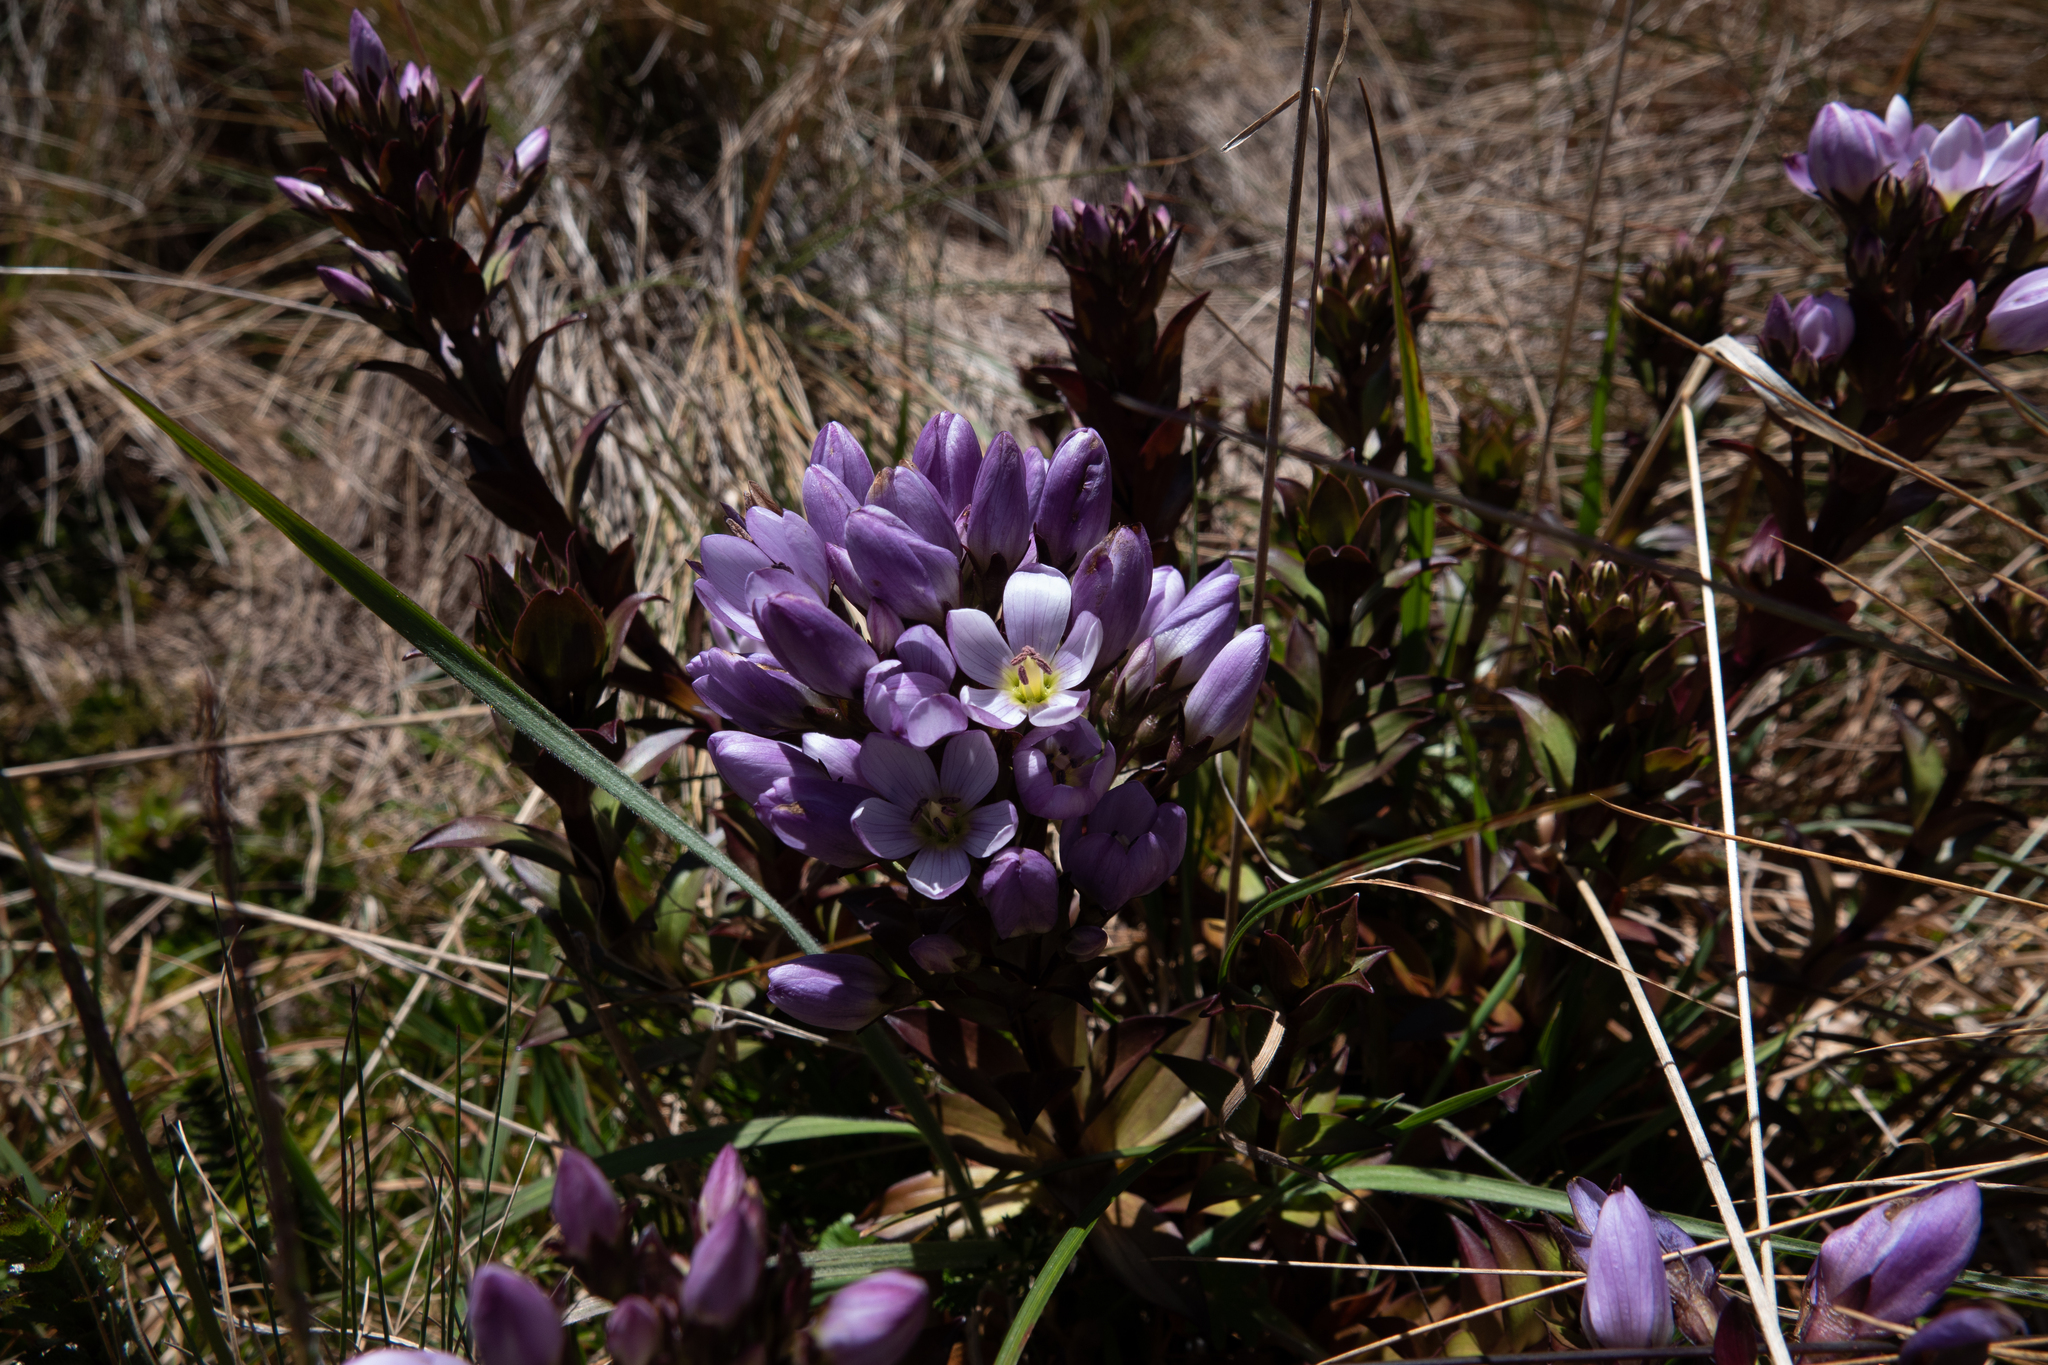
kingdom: Plantae
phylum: Tracheophyta
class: Magnoliopsida
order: Gentianales
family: Gentianaceae
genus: Gentianella
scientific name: Gentianella foliosa
